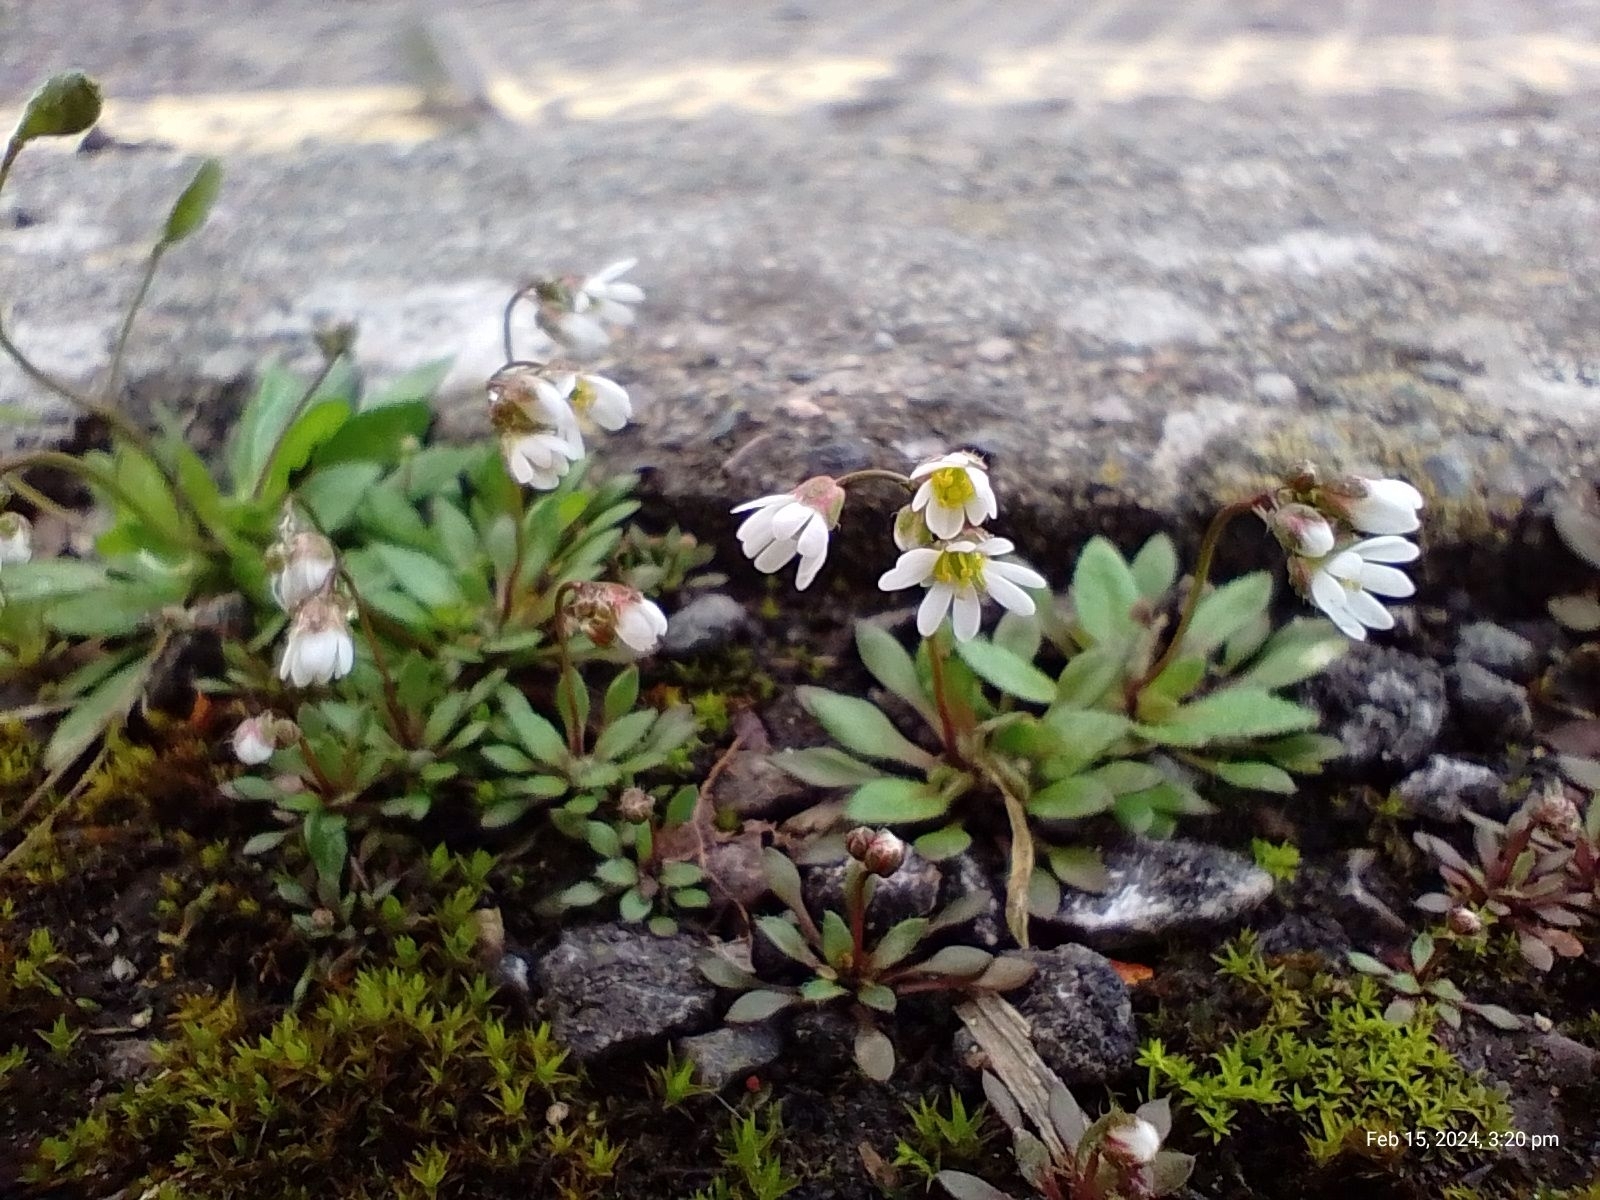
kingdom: Plantae
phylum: Tracheophyta
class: Magnoliopsida
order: Brassicales
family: Brassicaceae
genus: Draba
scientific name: Draba verna
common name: Spring draba
